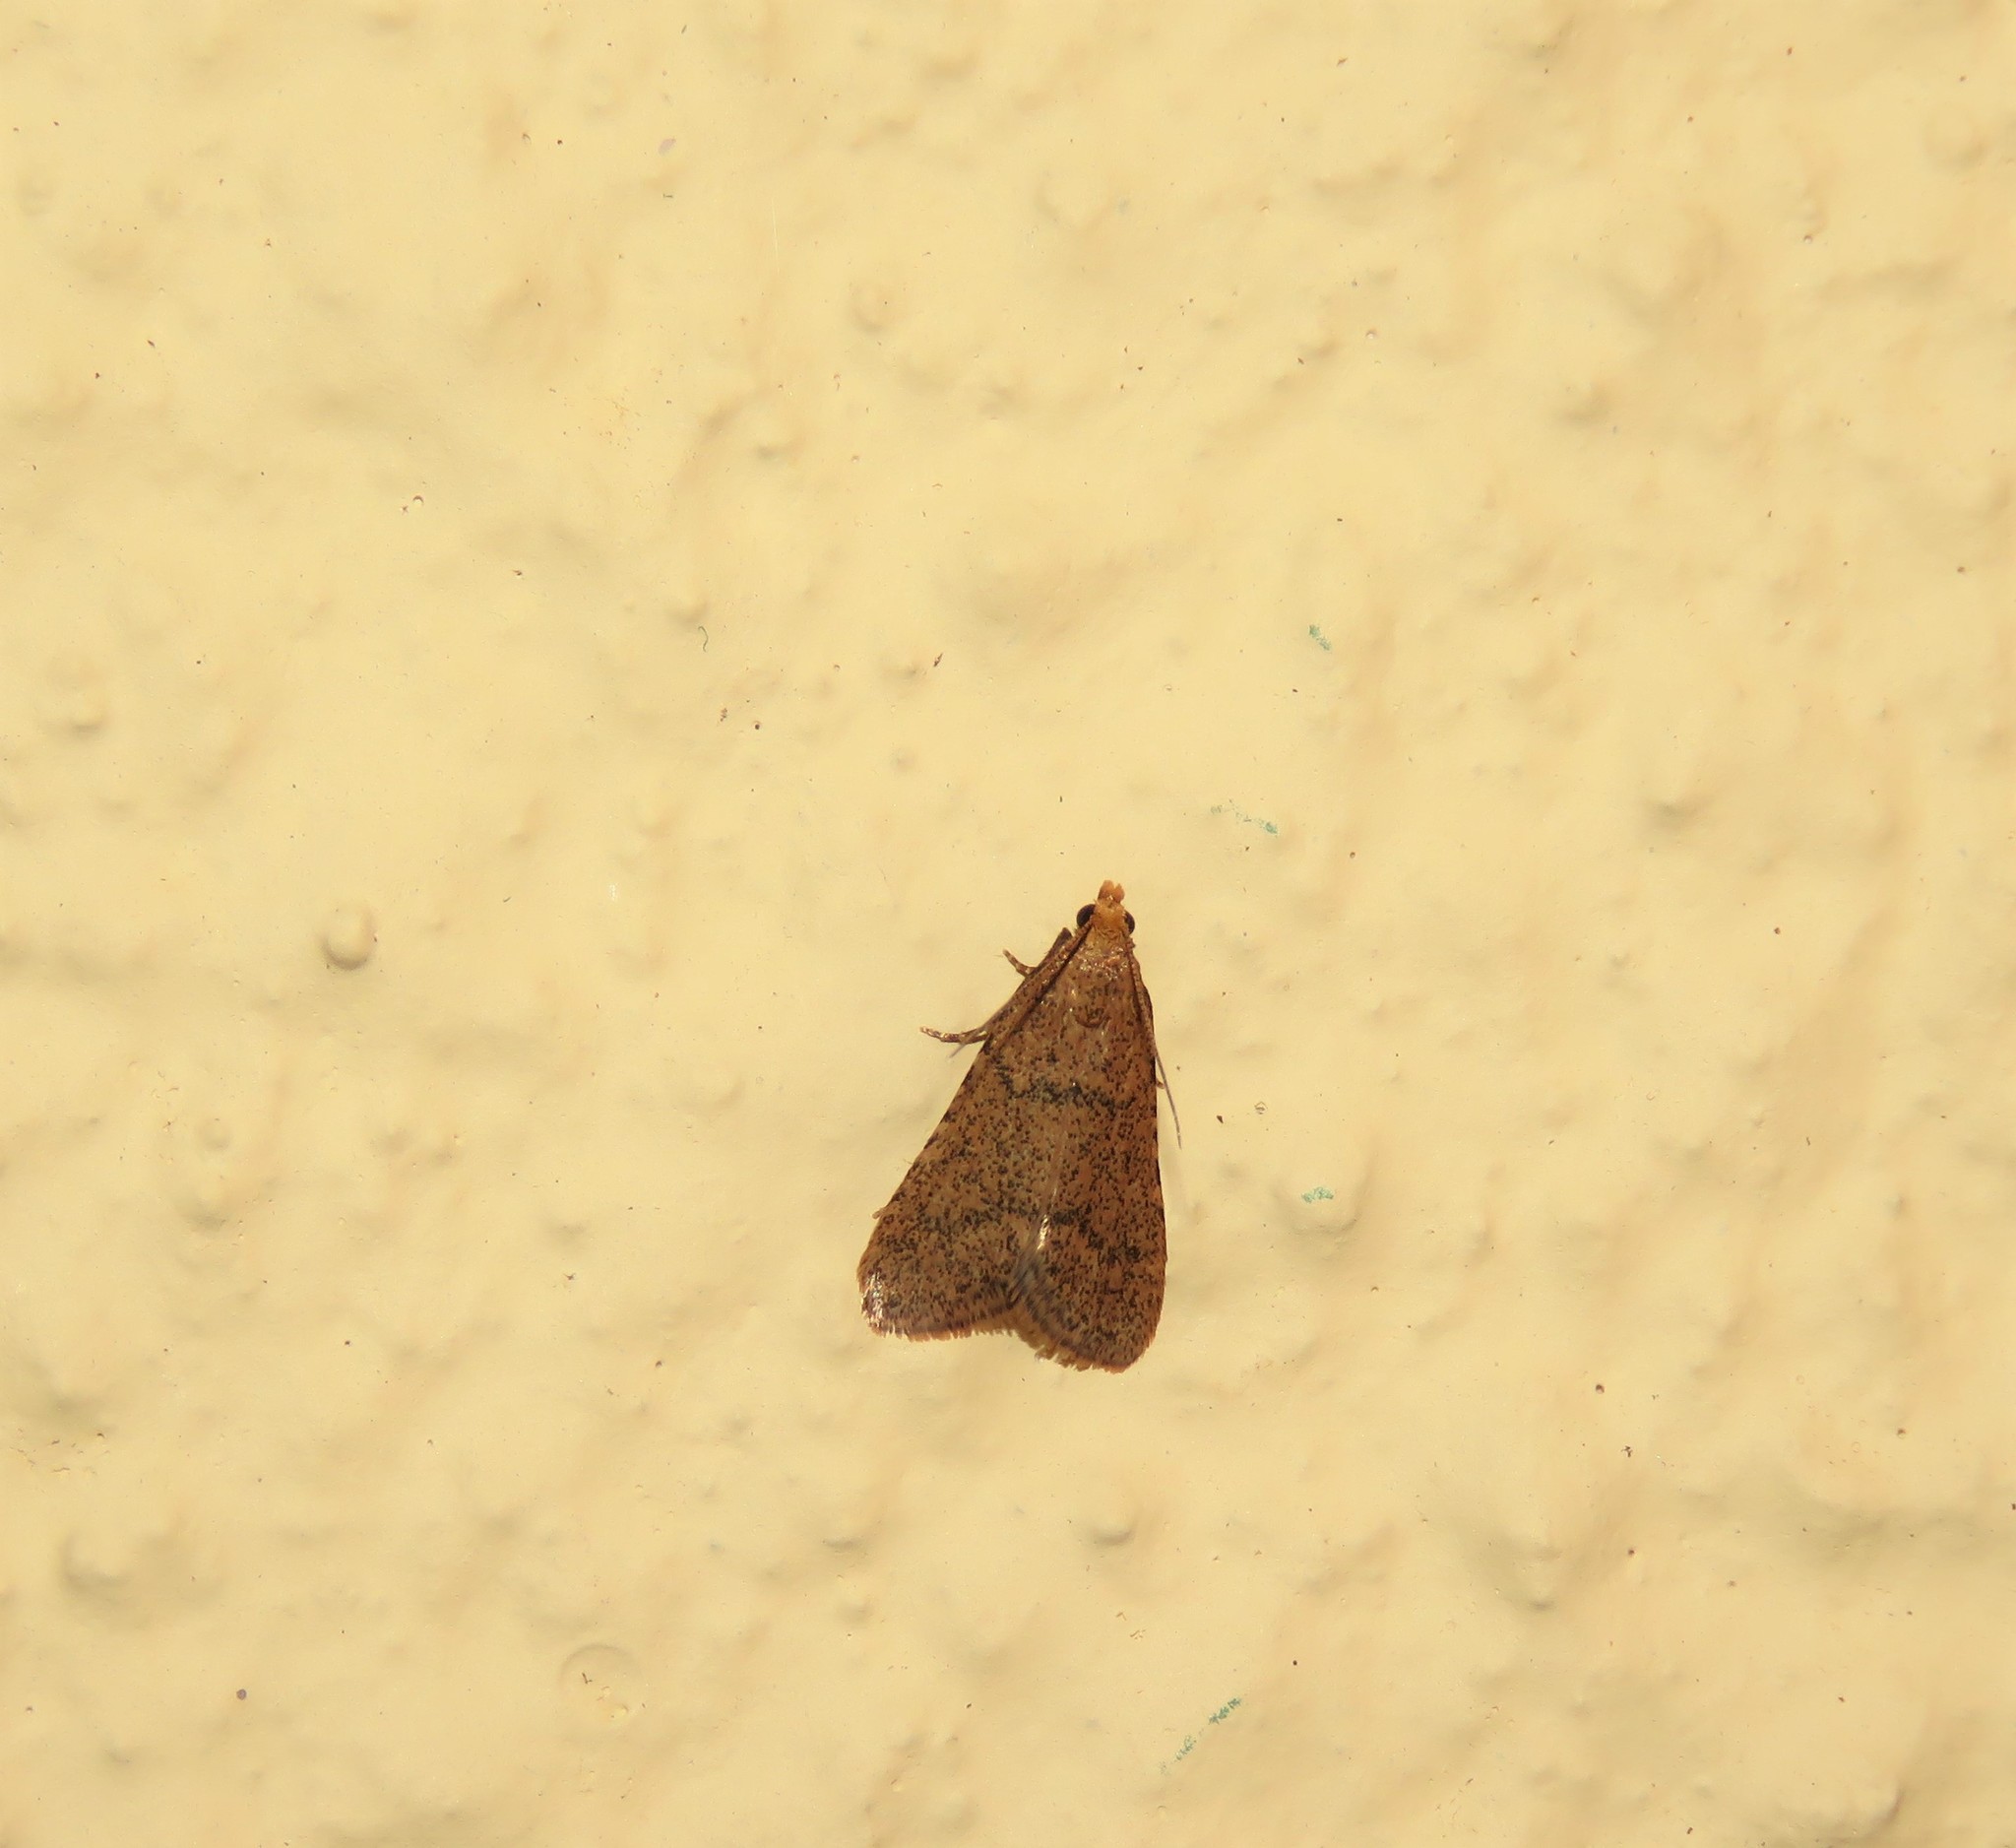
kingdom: Animalia
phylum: Arthropoda
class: Insecta
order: Lepidoptera
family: Pyralidae
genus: Bostra
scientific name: Bostra obsoletalis
